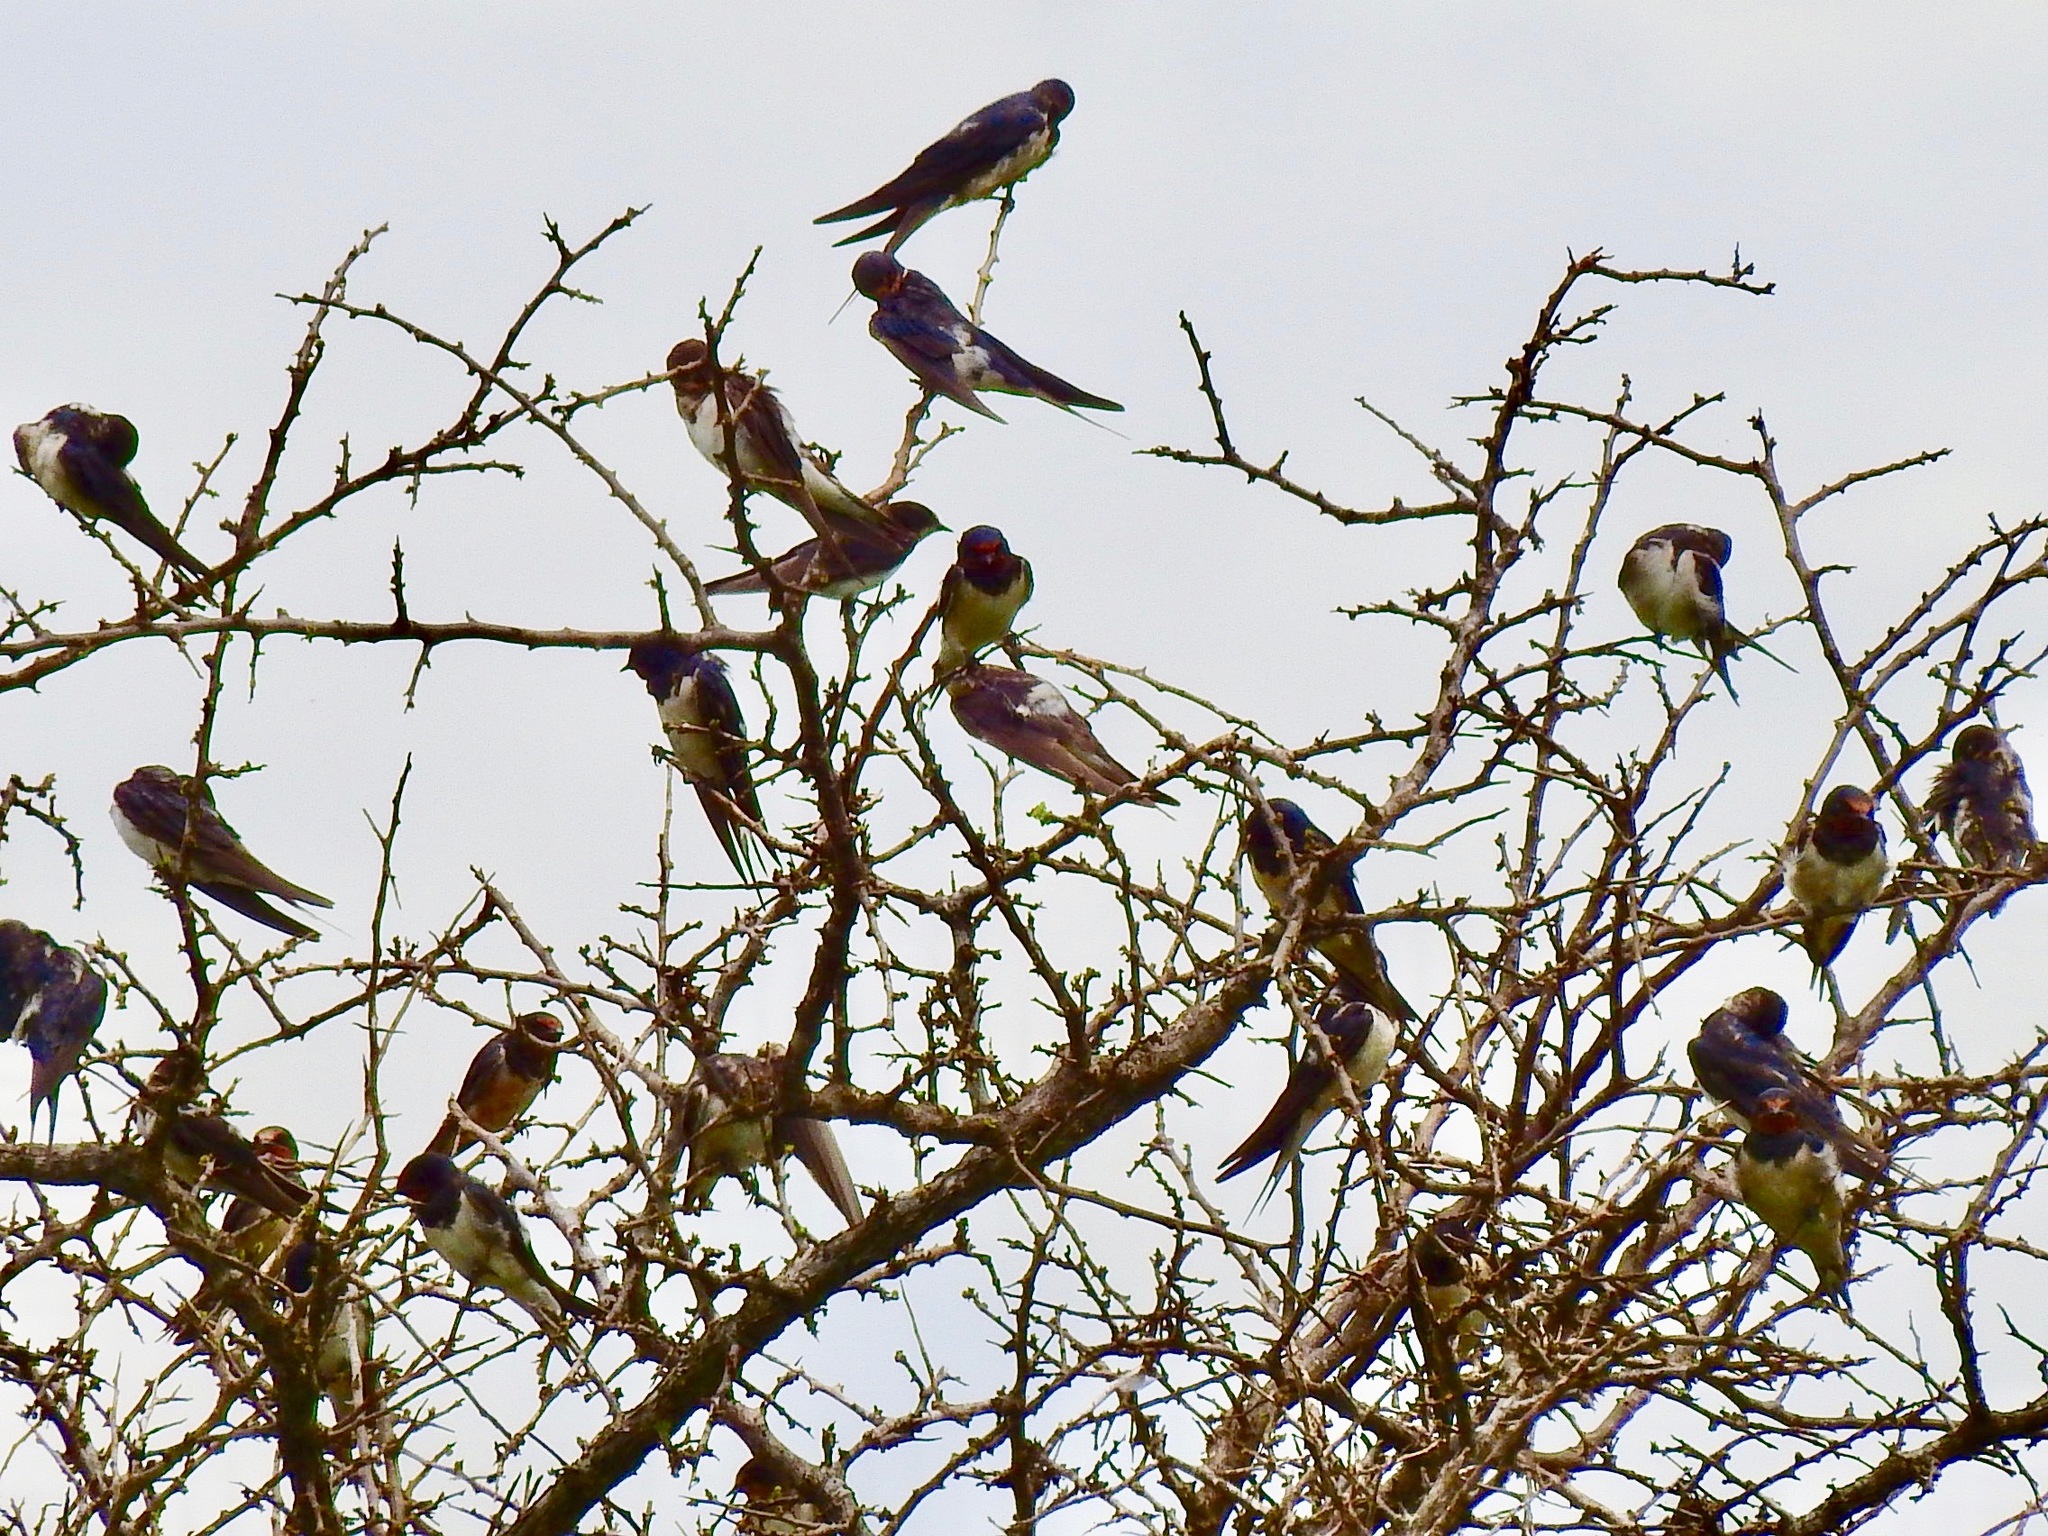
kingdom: Animalia
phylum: Chordata
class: Aves
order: Passeriformes
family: Hirundinidae
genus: Hirundo
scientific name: Hirundo rustica
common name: Barn swallow
